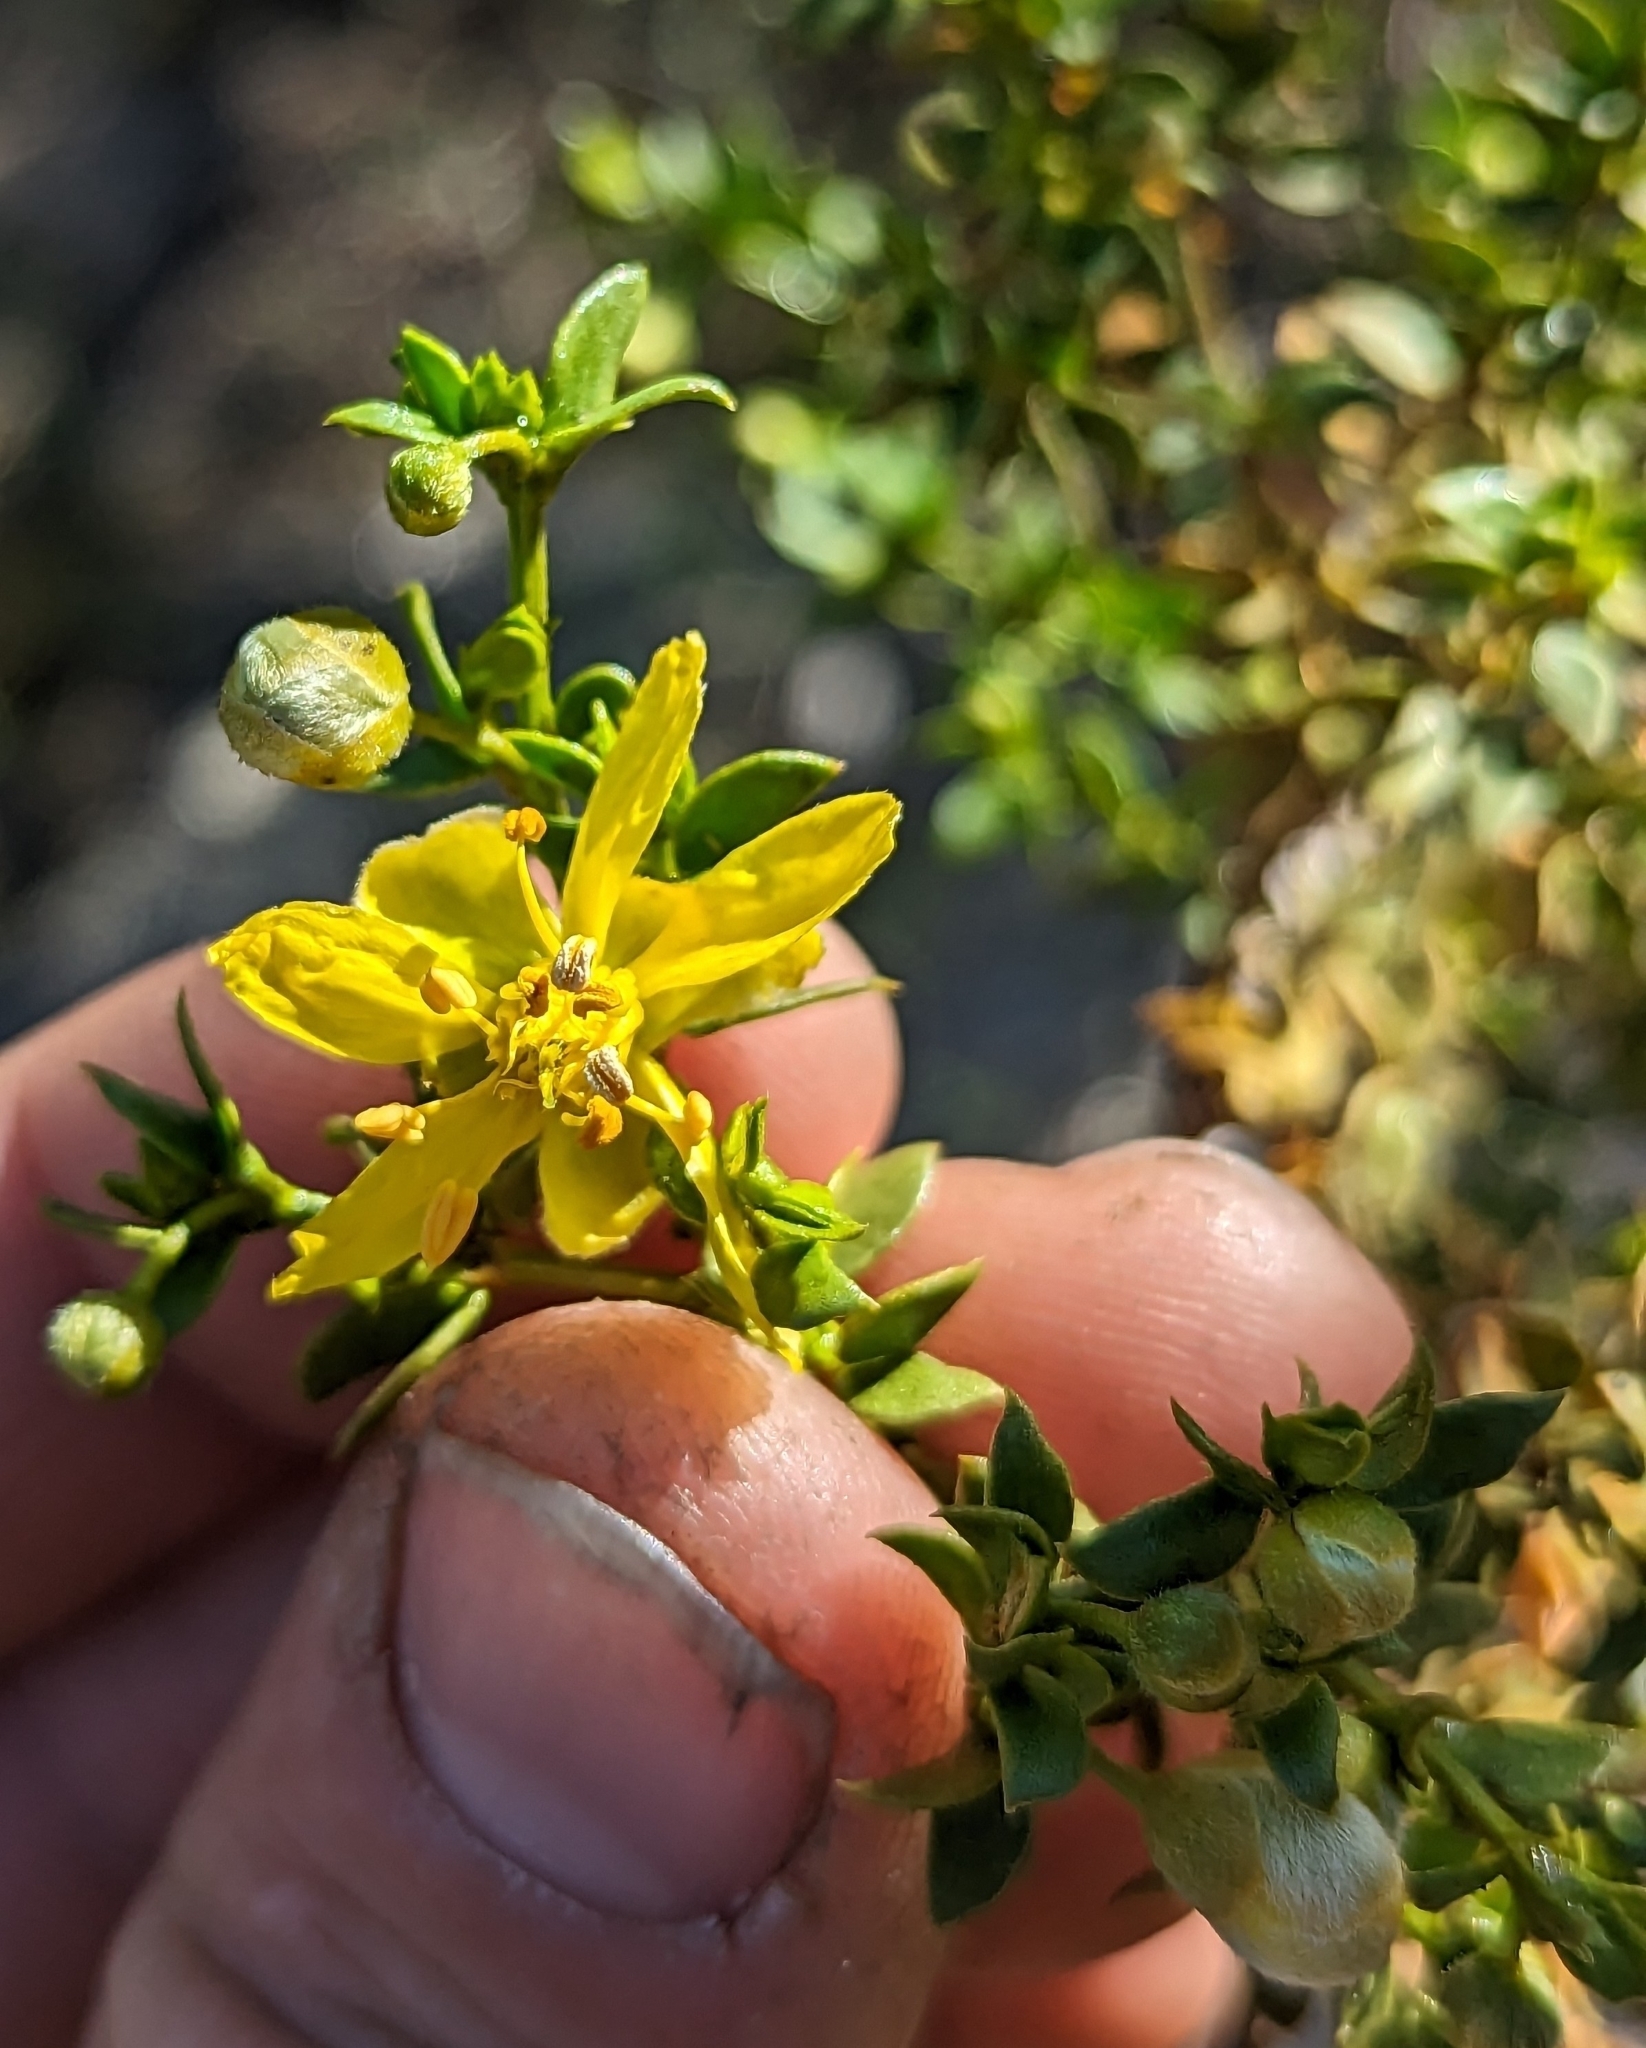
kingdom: Plantae
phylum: Tracheophyta
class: Magnoliopsida
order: Zygophyllales
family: Zygophyllaceae
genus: Larrea
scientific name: Larrea tridentata
